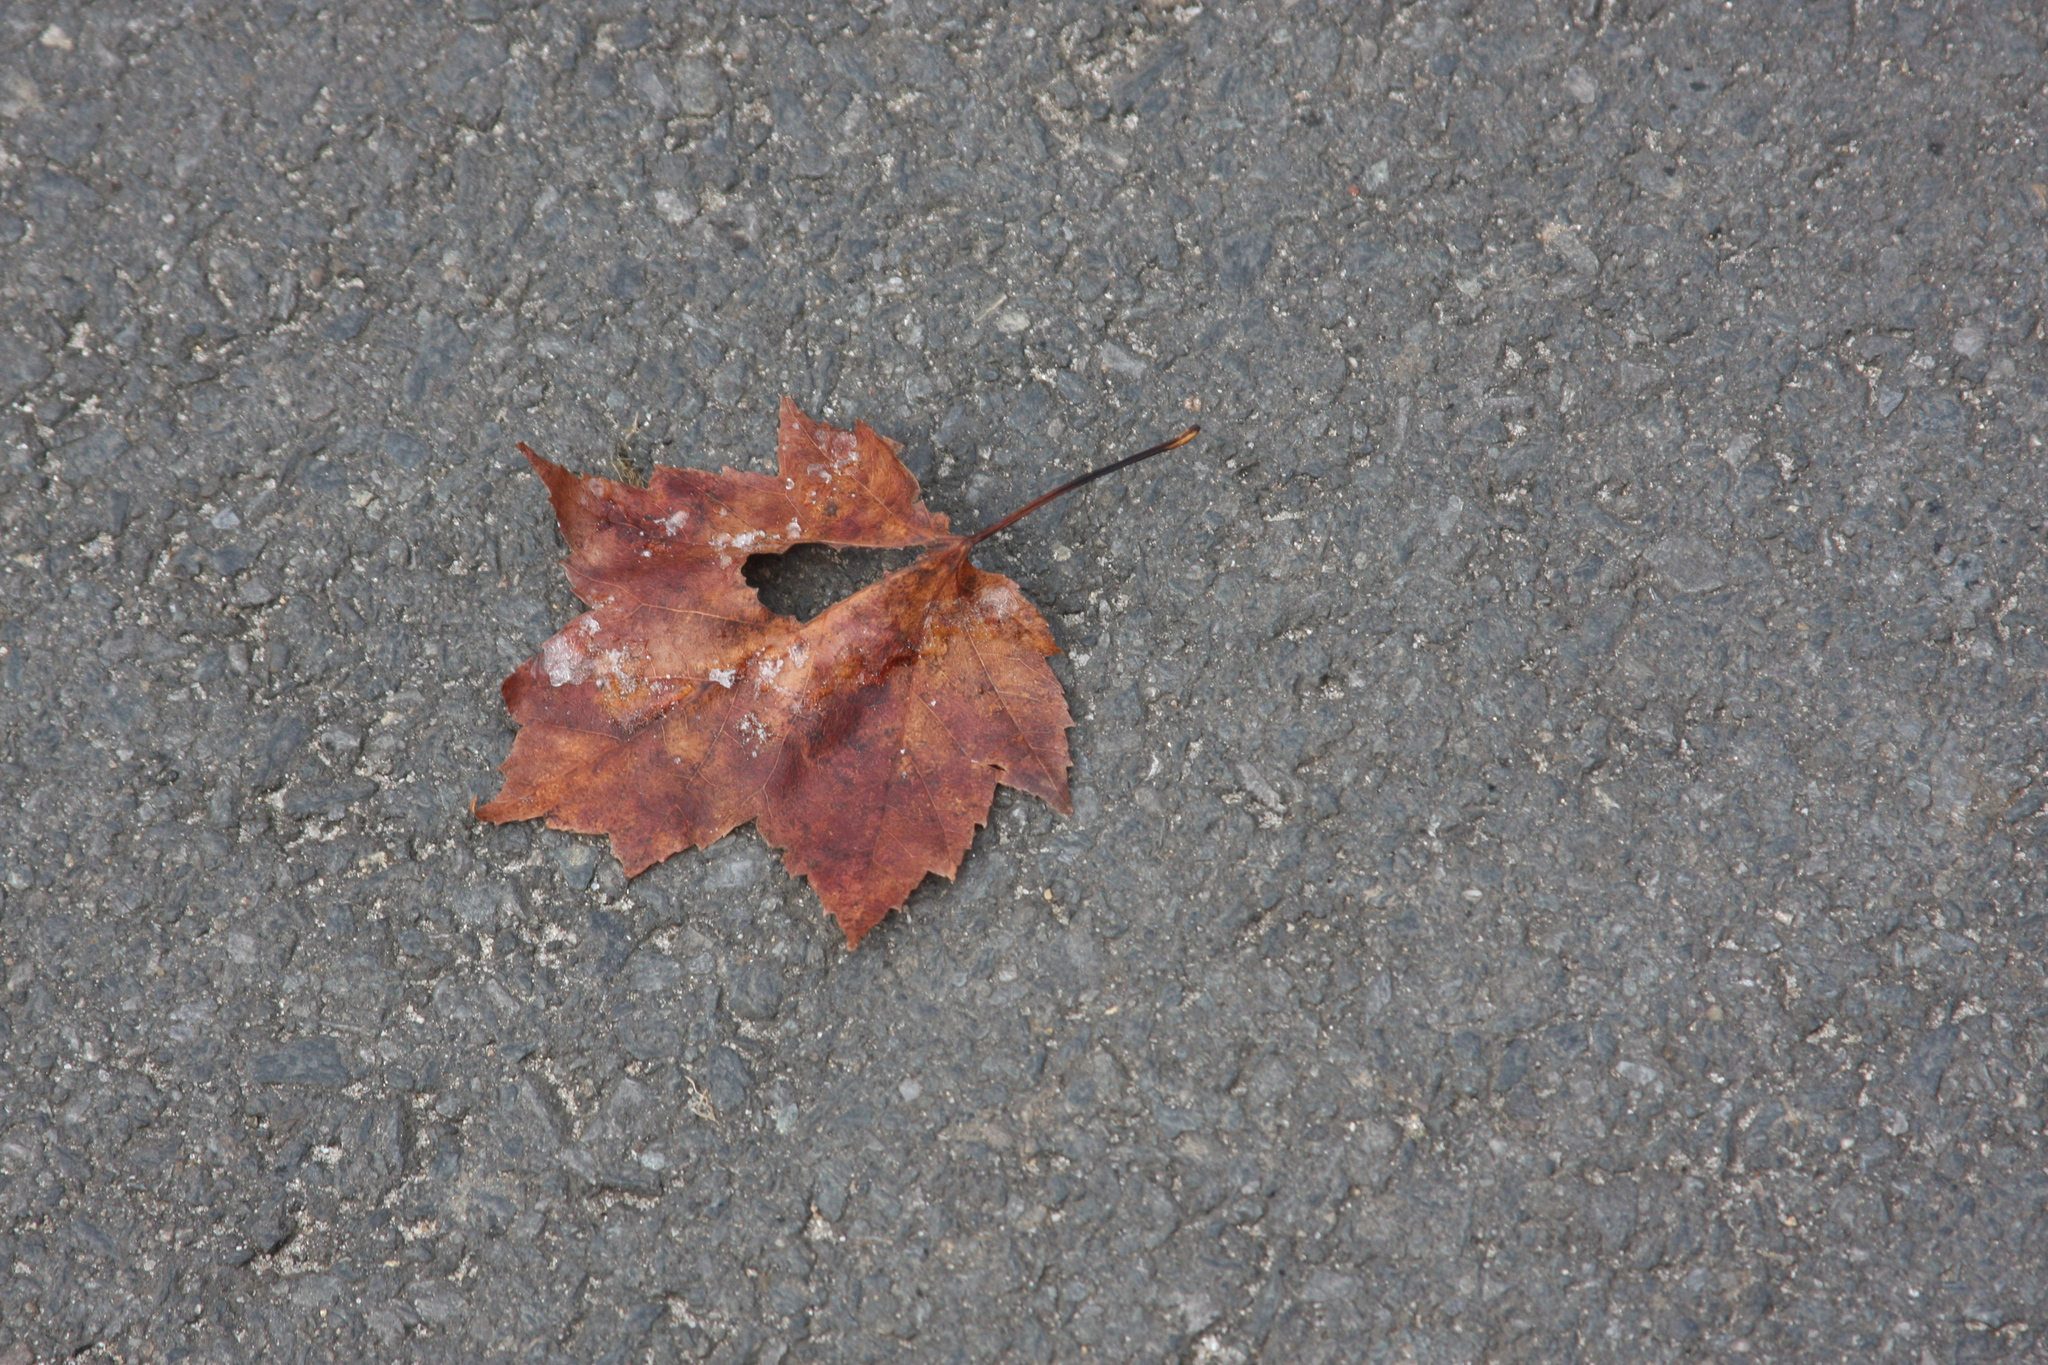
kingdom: Plantae
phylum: Tracheophyta
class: Magnoliopsida
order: Sapindales
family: Sapindaceae
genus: Acer
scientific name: Acer rubrum
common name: Red maple
